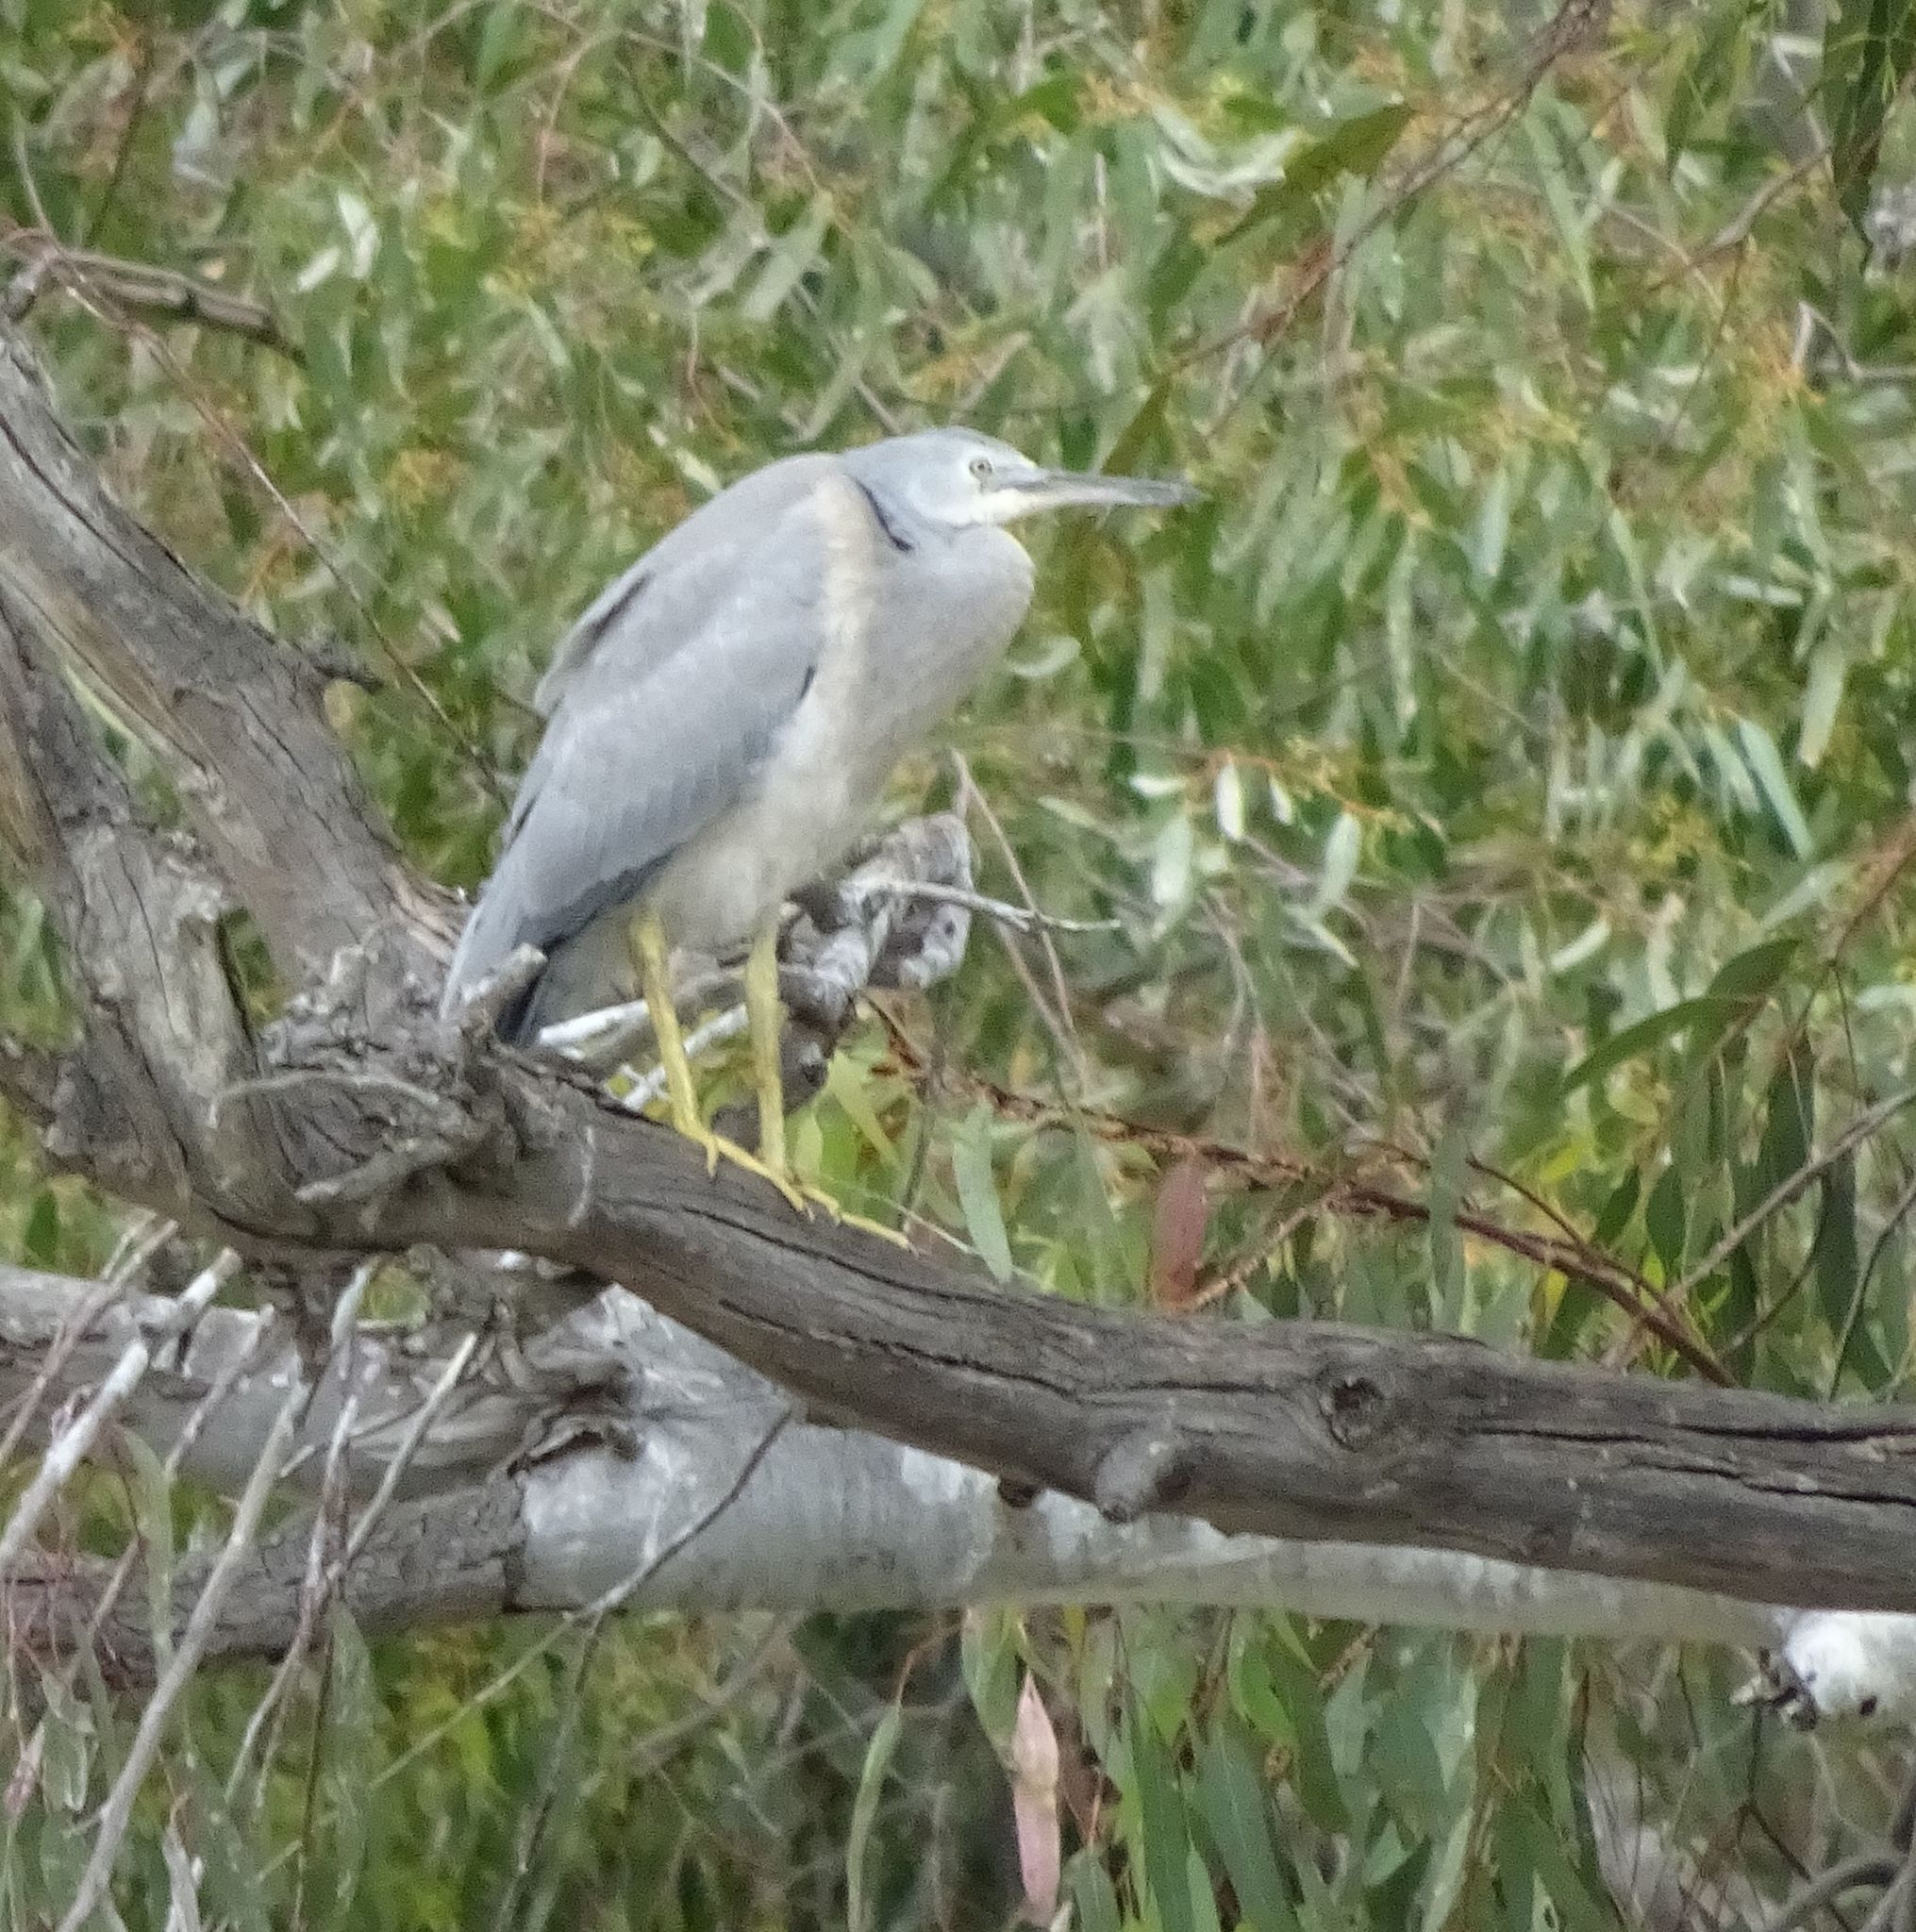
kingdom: Animalia
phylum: Chordata
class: Aves
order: Pelecaniformes
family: Ardeidae
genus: Egretta
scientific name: Egretta novaehollandiae
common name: White-faced heron
